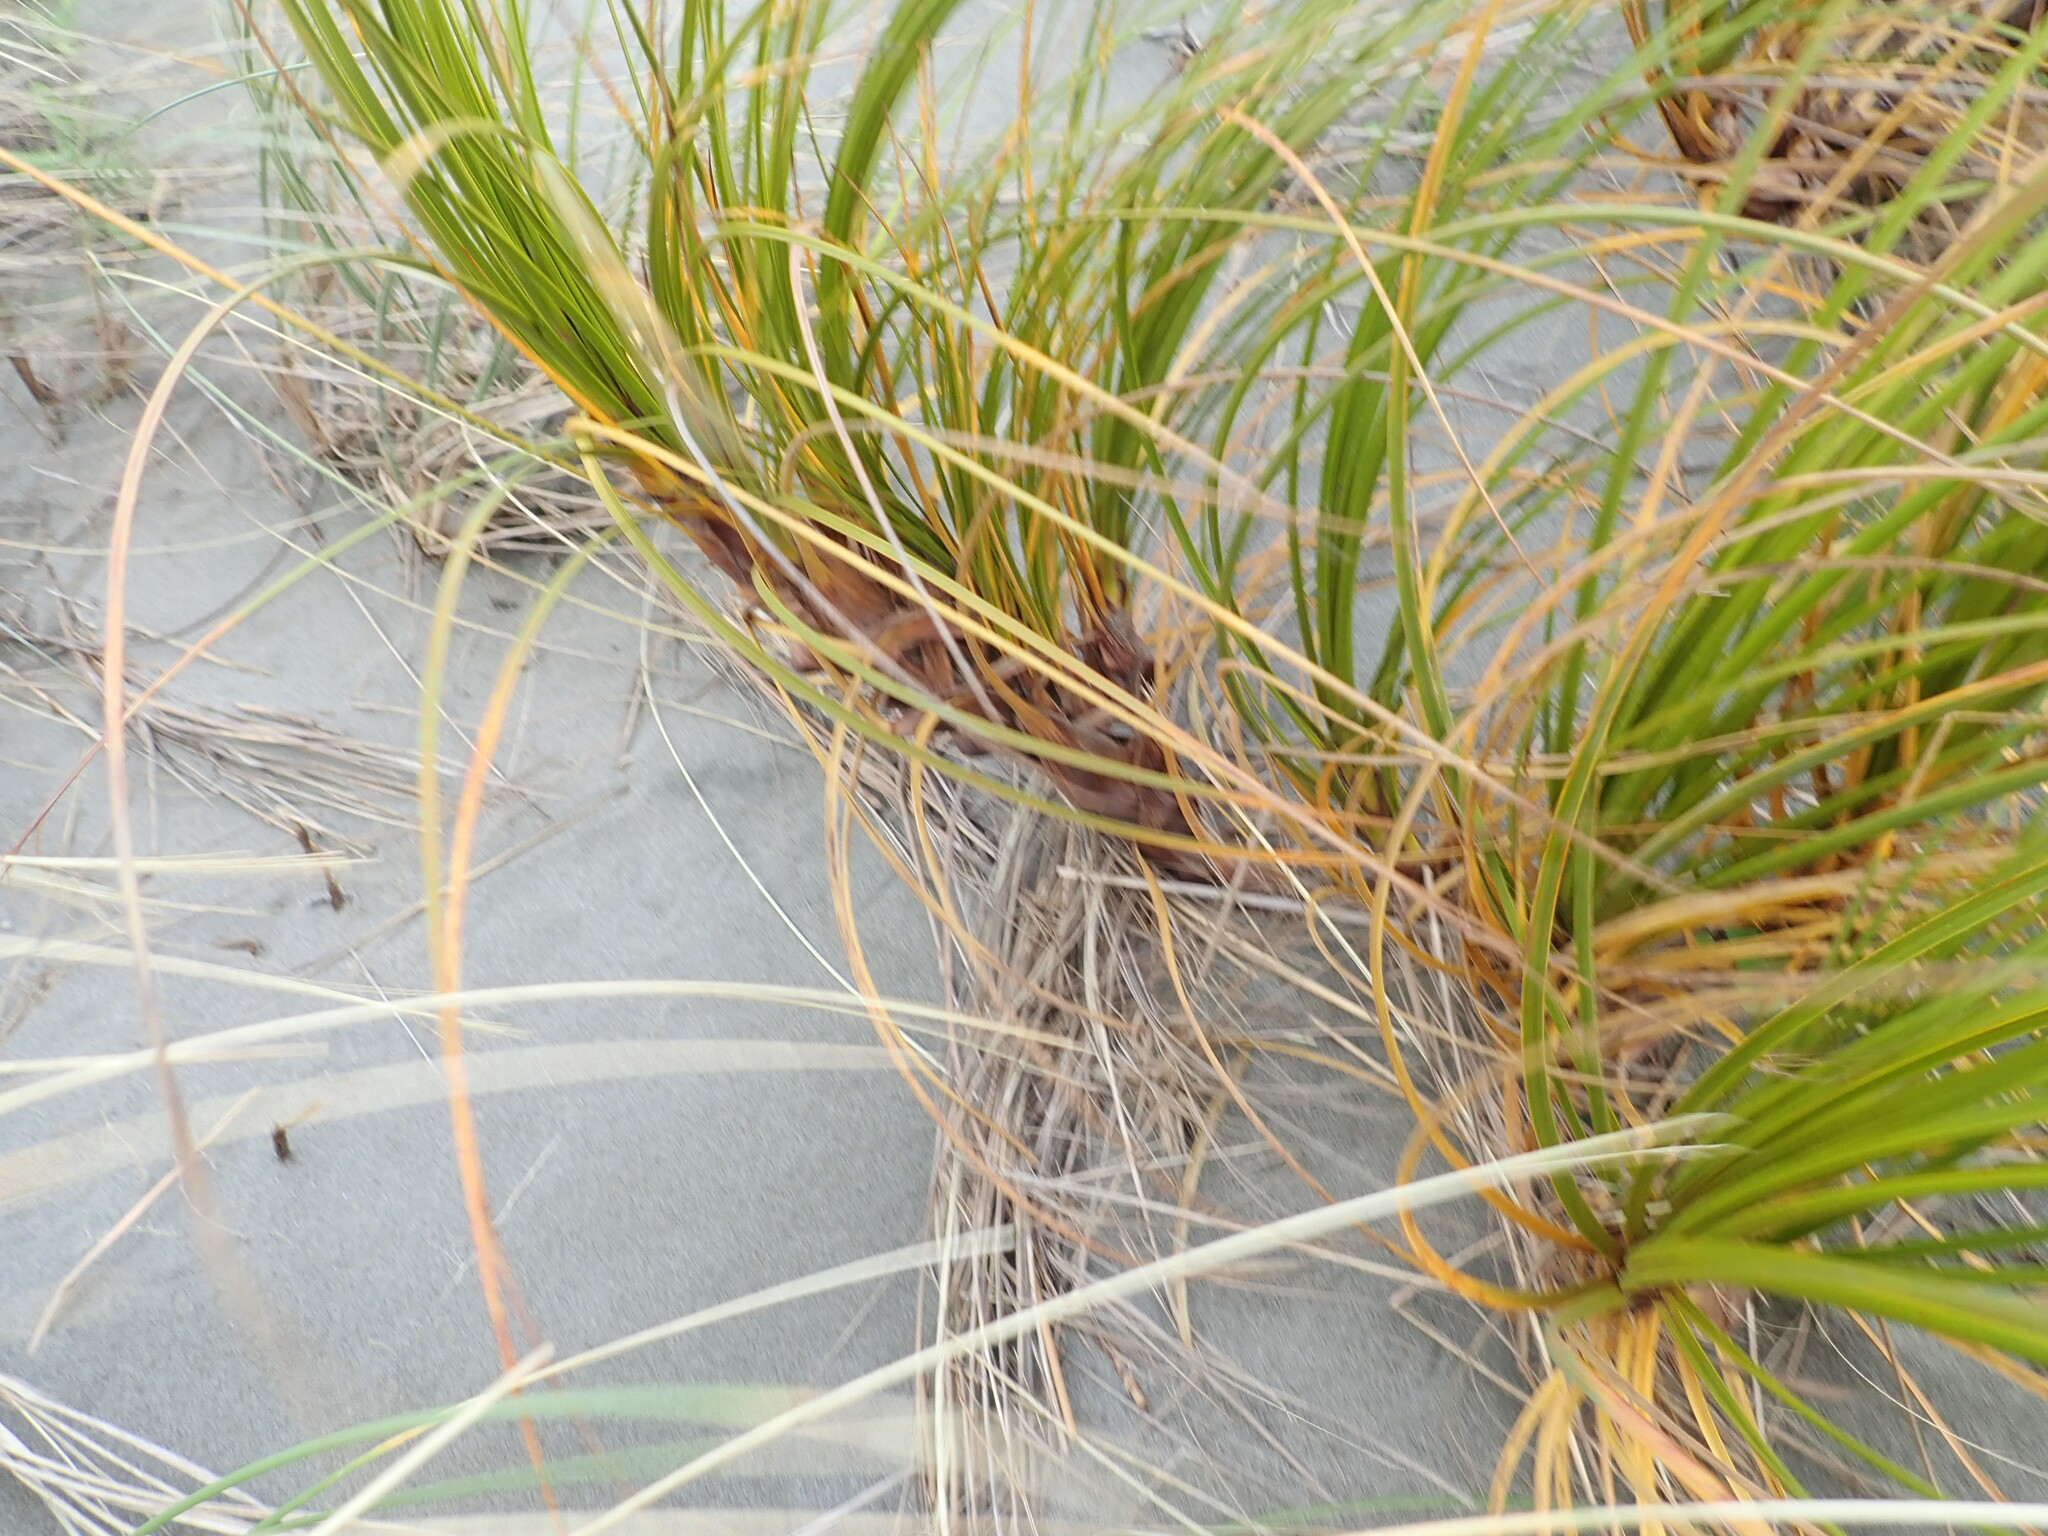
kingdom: Plantae
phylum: Tracheophyta
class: Liliopsida
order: Poales
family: Cyperaceae
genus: Ficinia
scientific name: Ficinia spiralis
